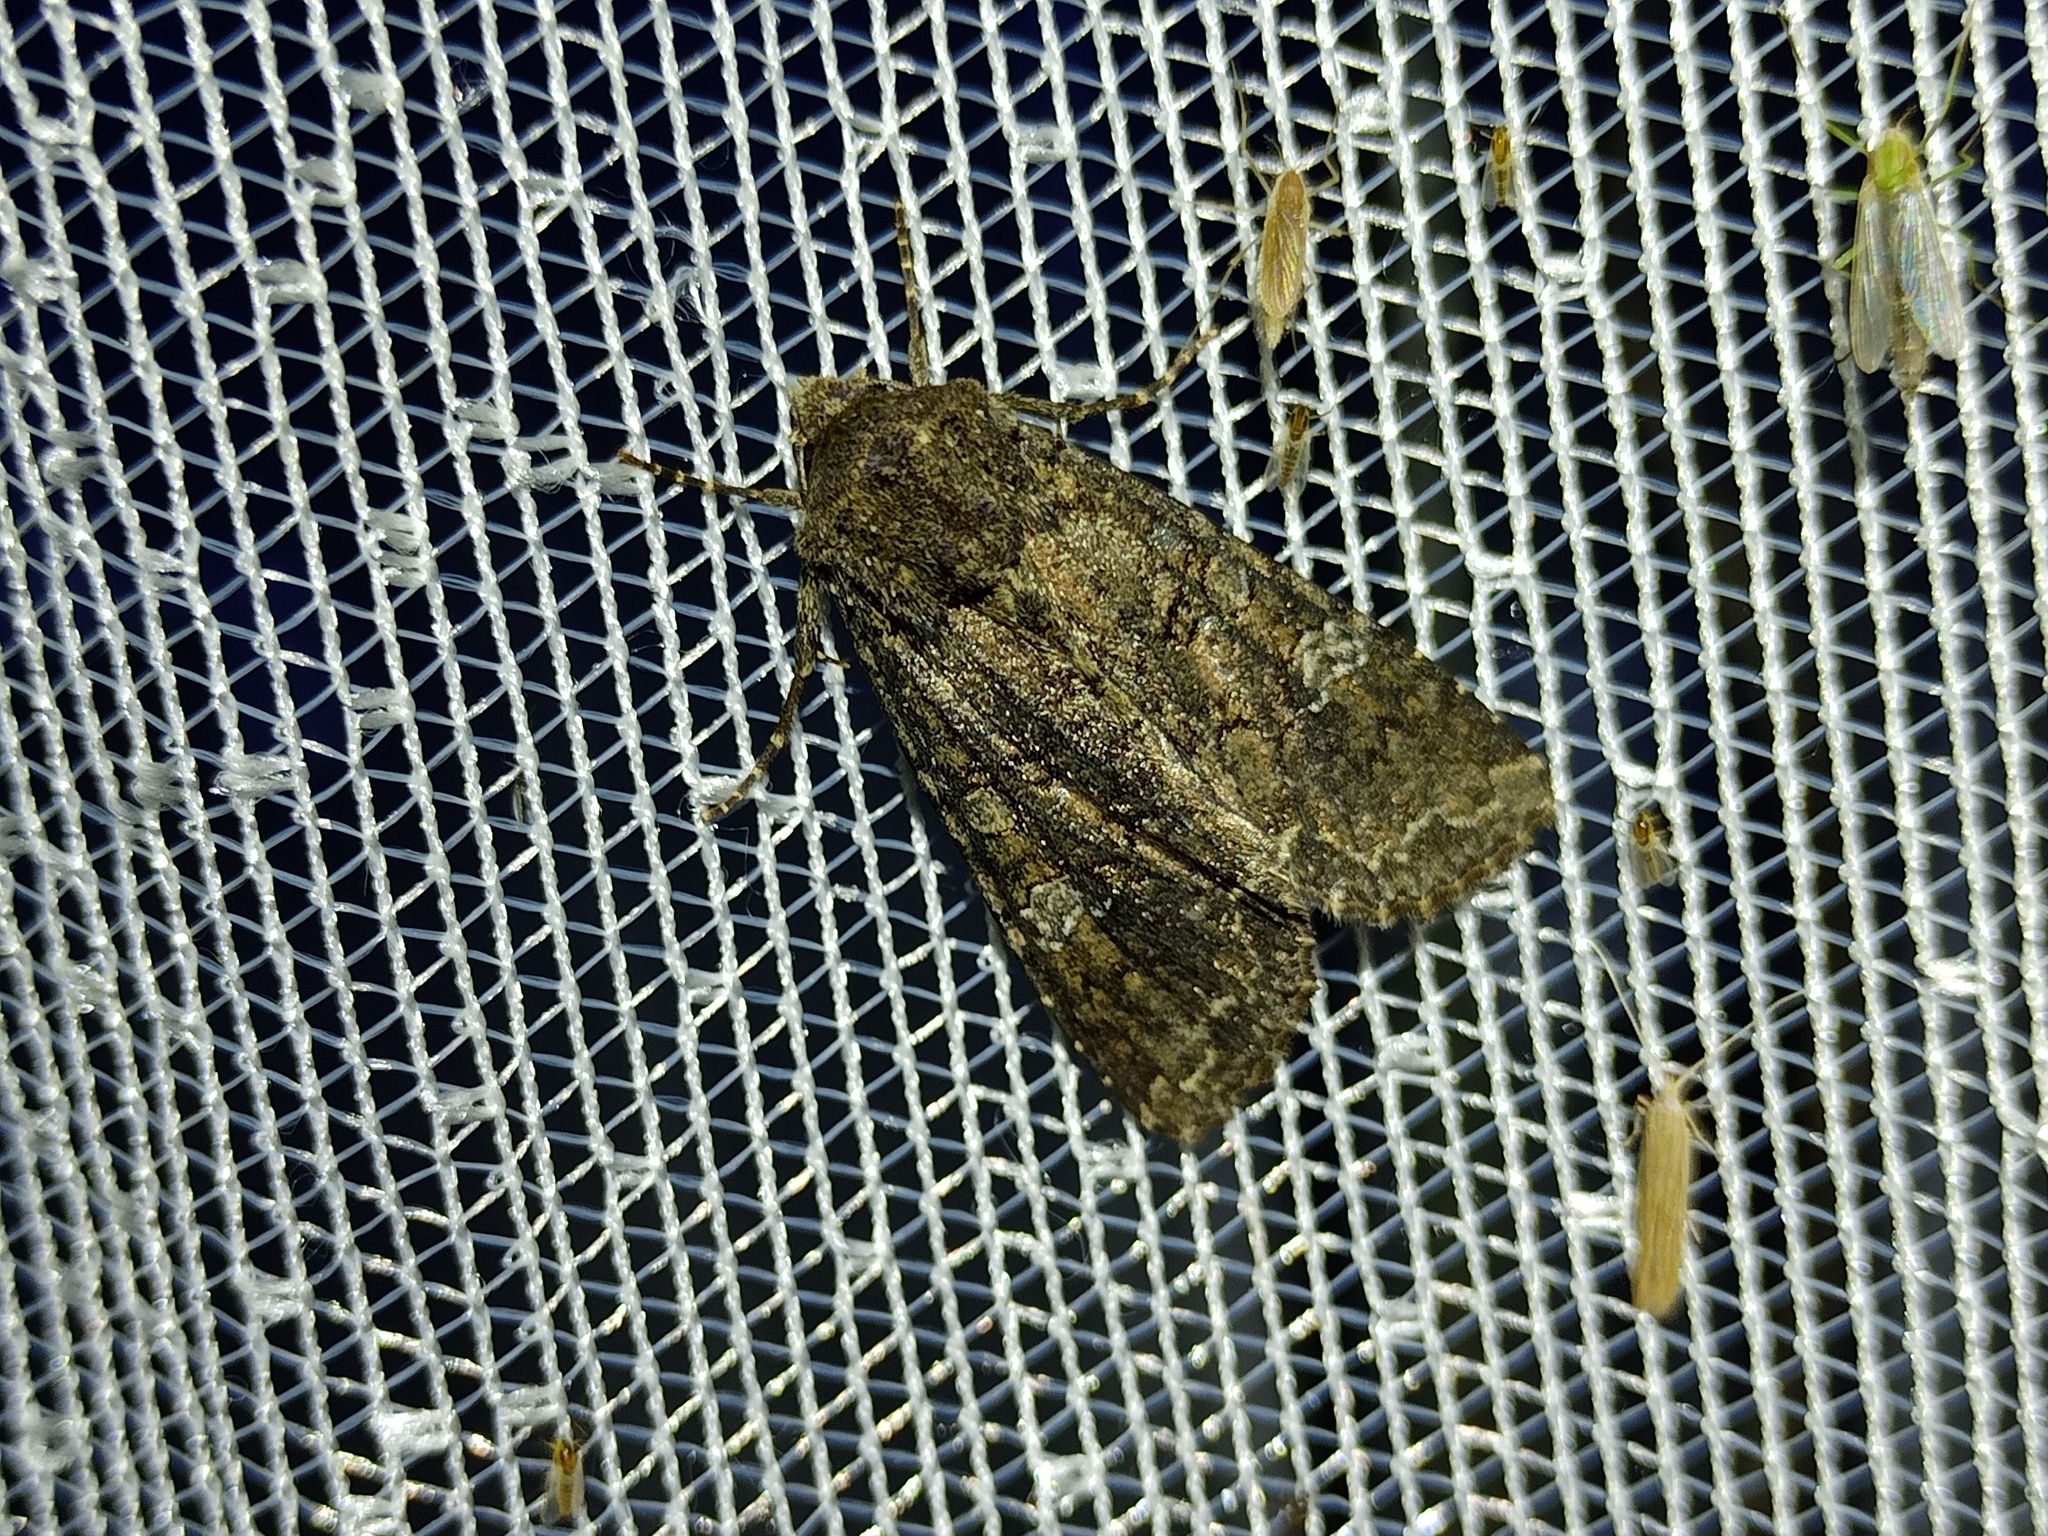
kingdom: Animalia
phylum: Arthropoda
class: Insecta
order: Lepidoptera
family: Noctuidae
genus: Mamestra
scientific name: Mamestra brassicae
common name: Cabbage moth
